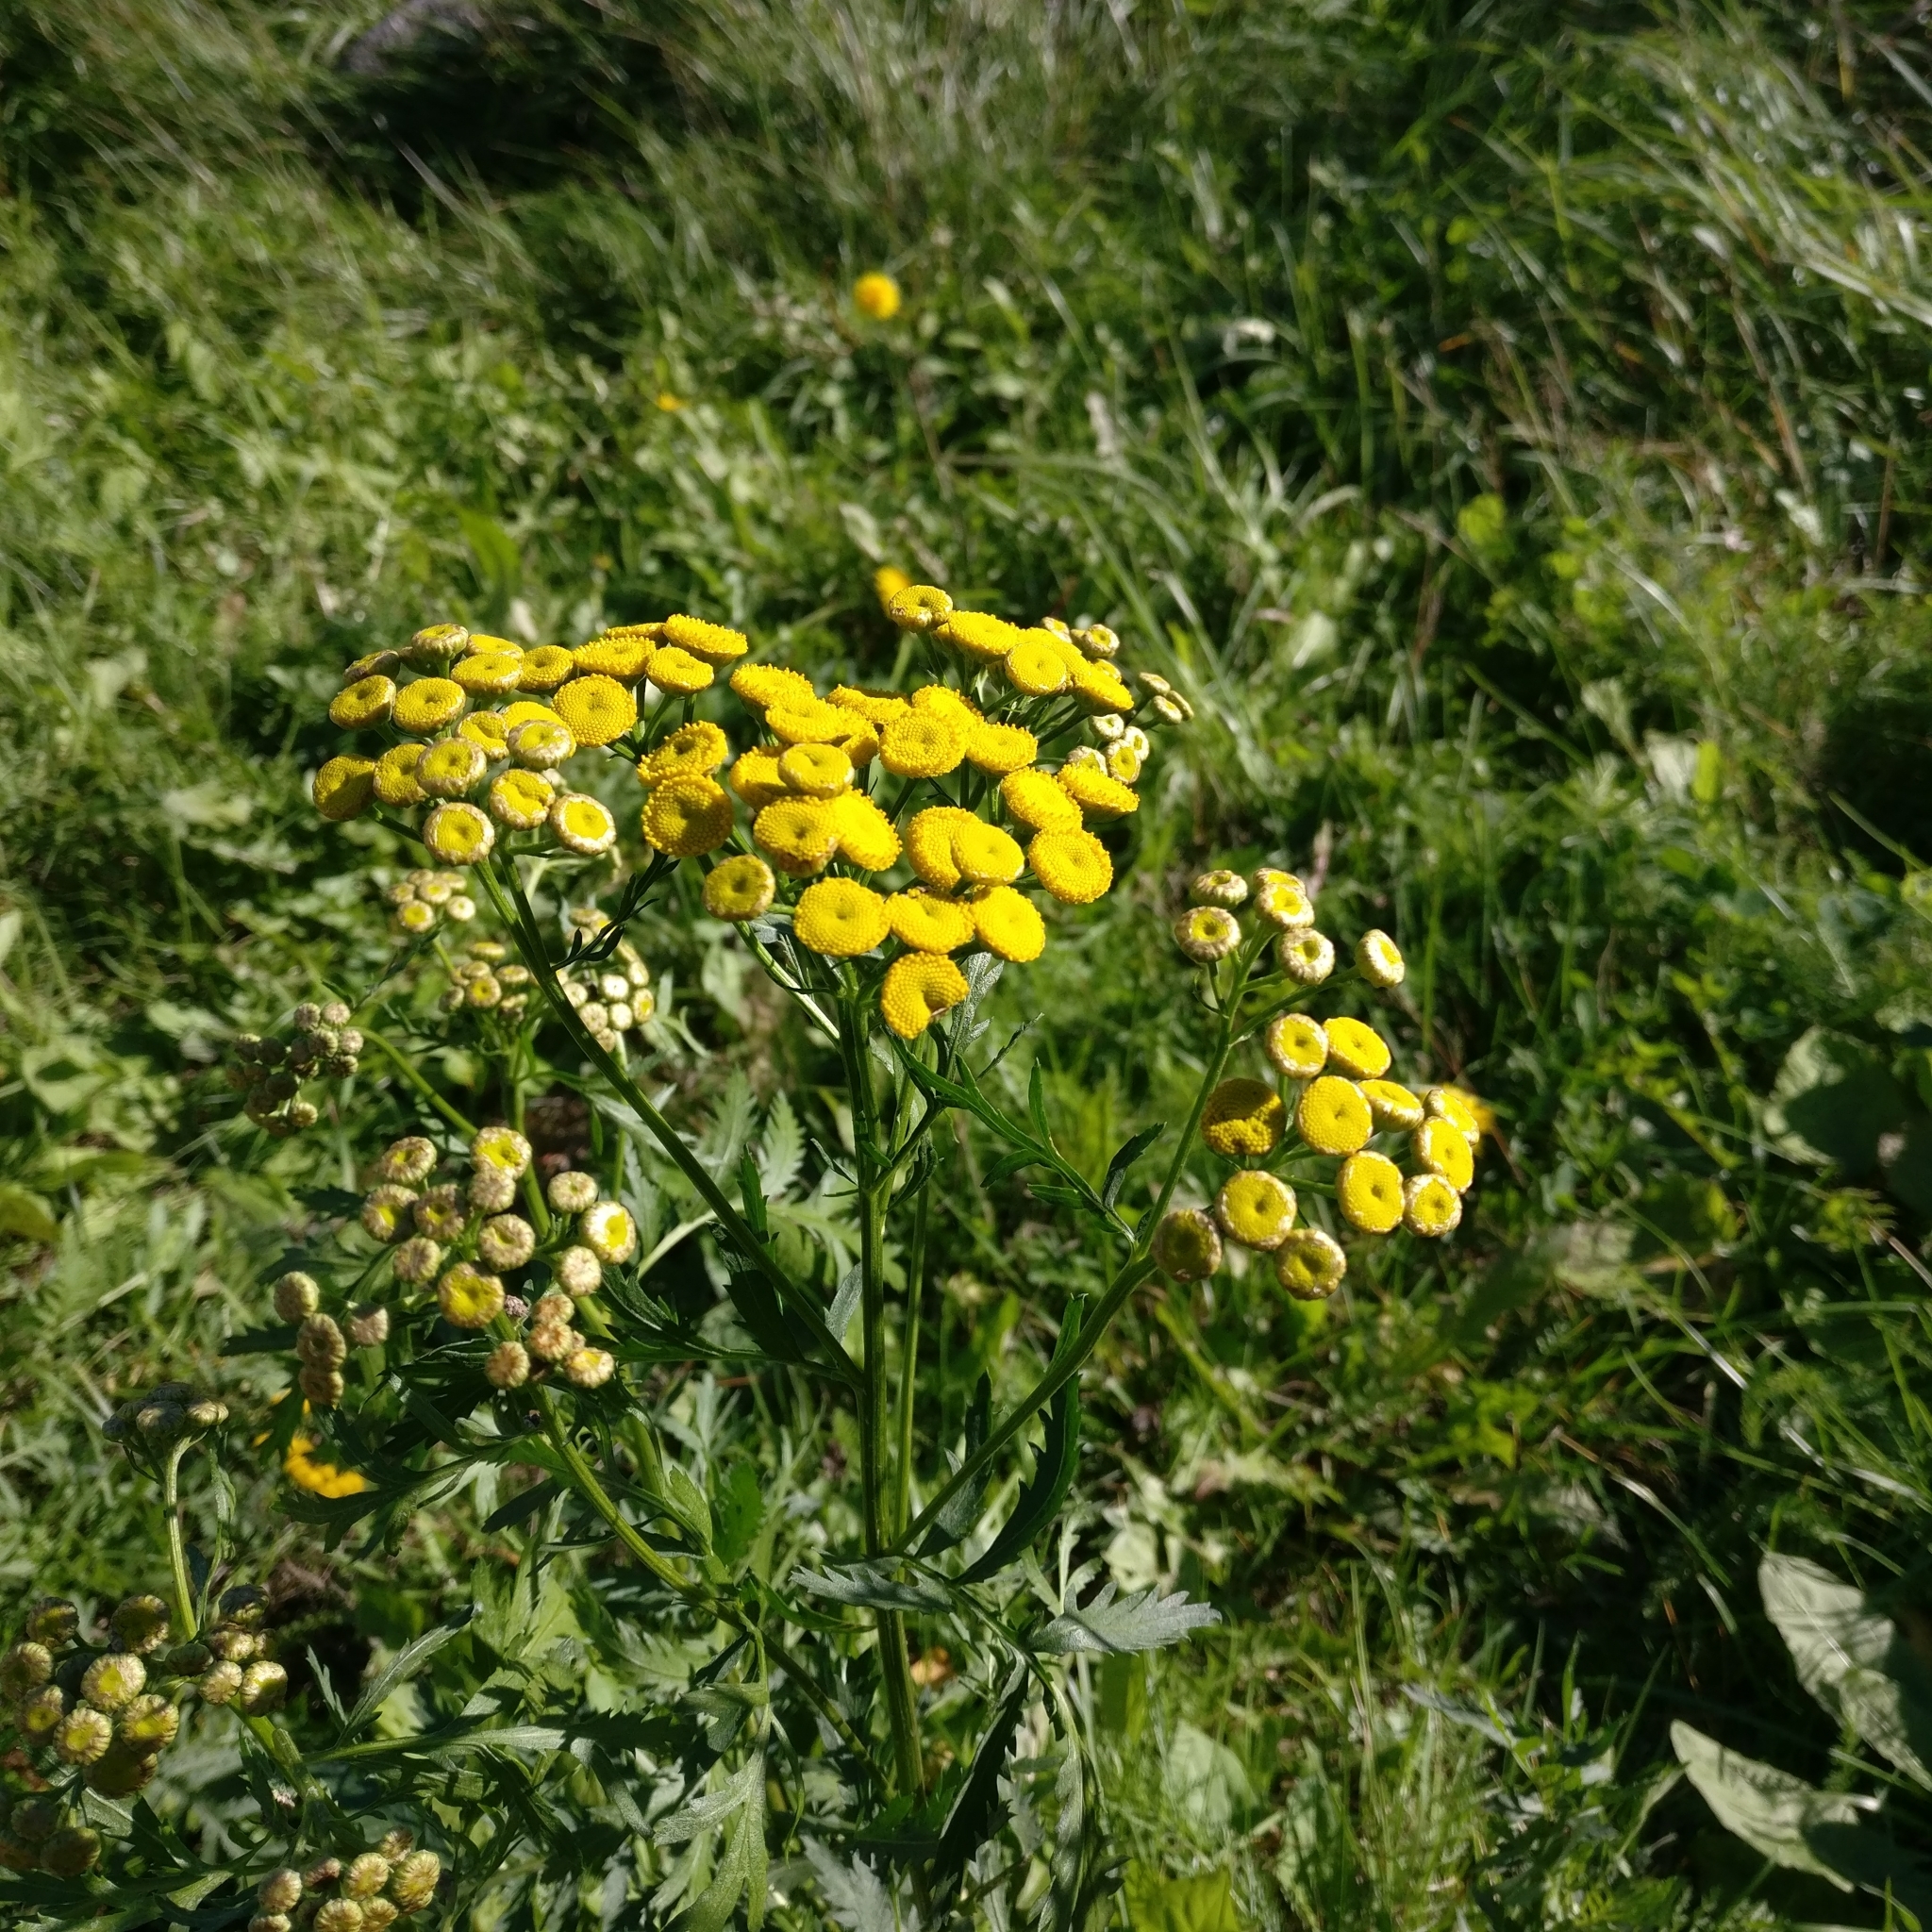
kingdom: Plantae
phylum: Tracheophyta
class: Magnoliopsida
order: Asterales
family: Asteraceae
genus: Tanacetum
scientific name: Tanacetum vulgare
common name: Common tansy
